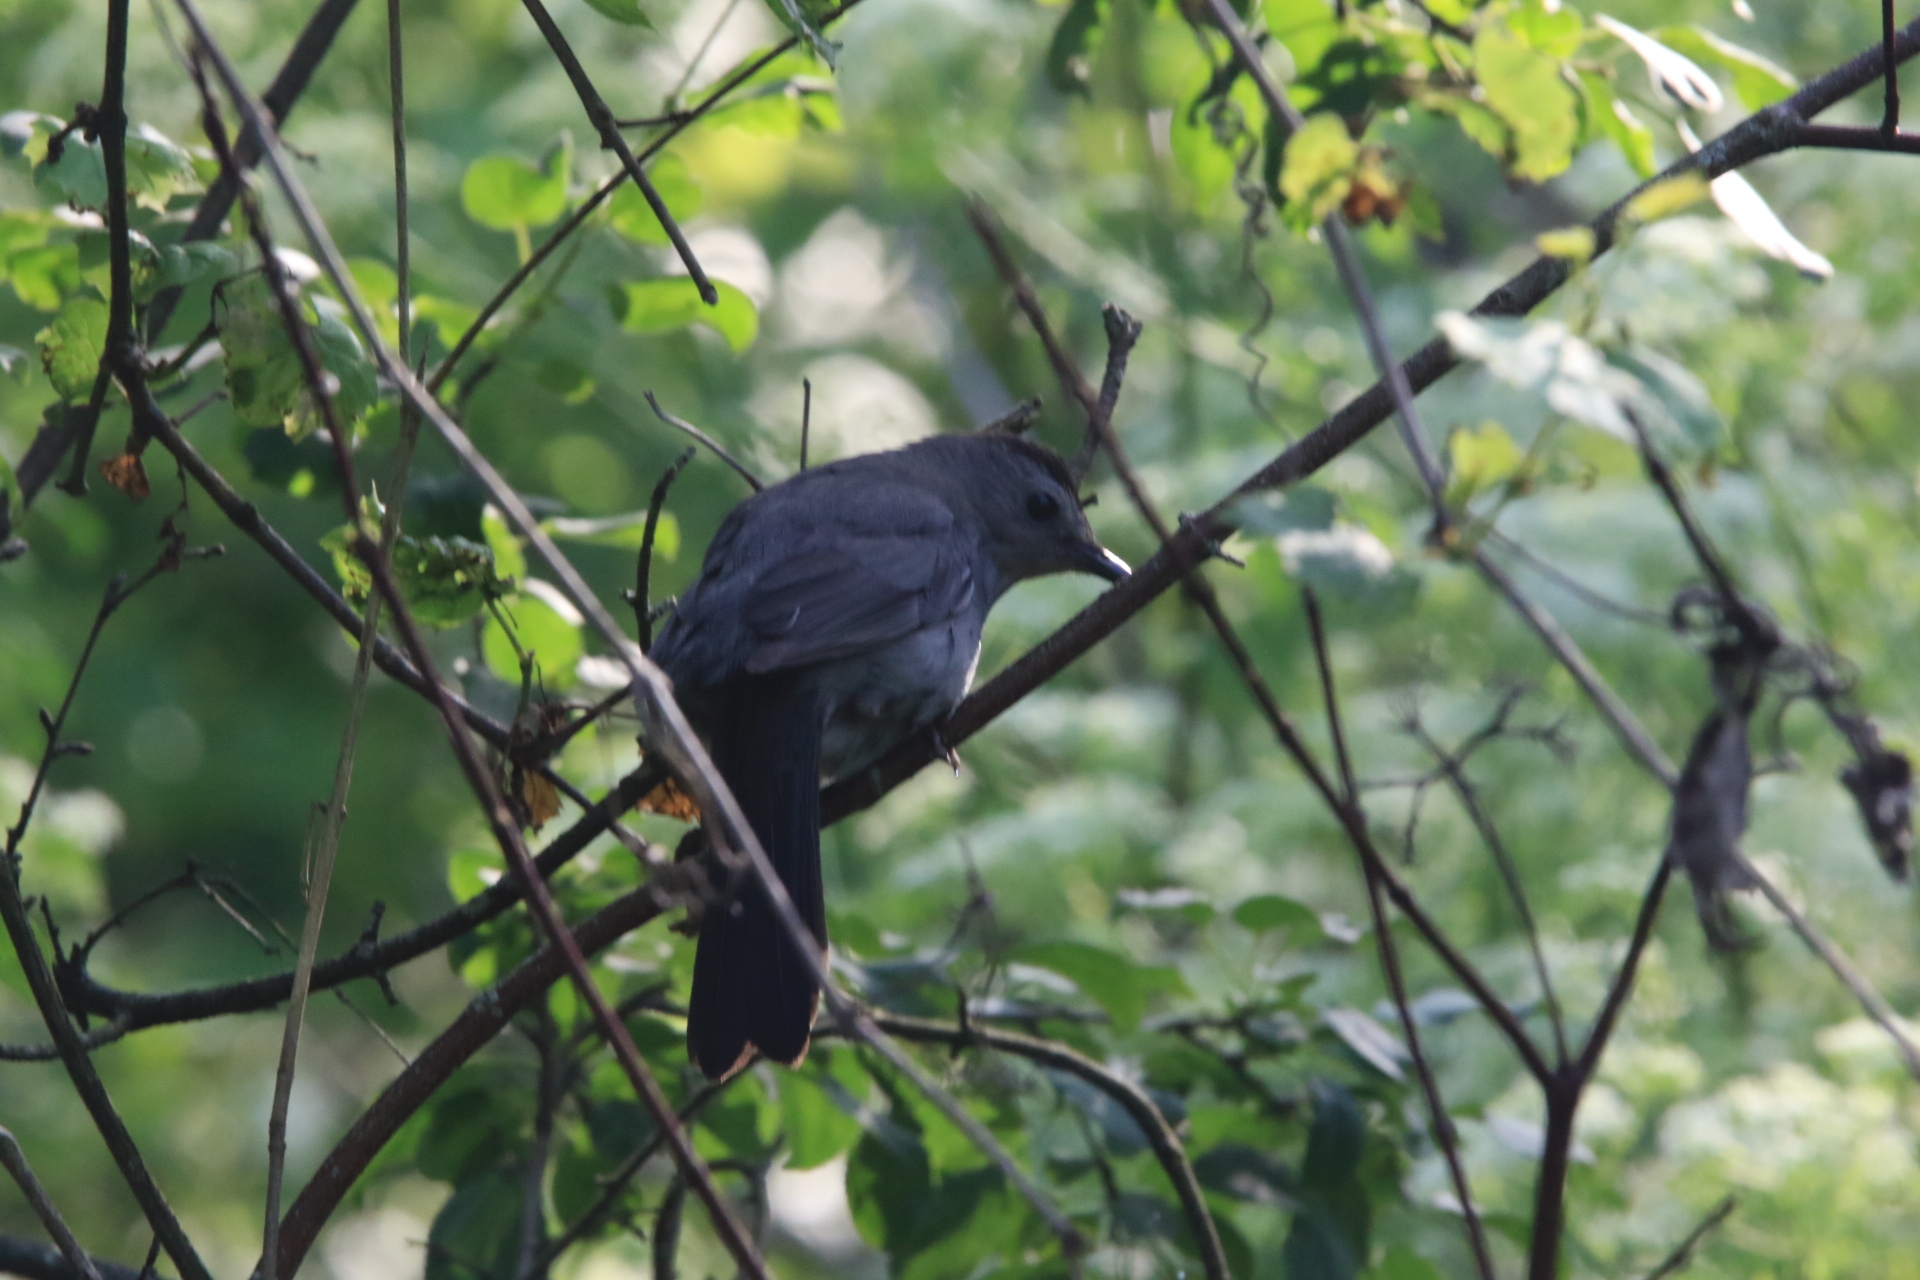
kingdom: Animalia
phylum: Chordata
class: Aves
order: Passeriformes
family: Mimidae
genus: Dumetella
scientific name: Dumetella carolinensis
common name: Gray catbird
